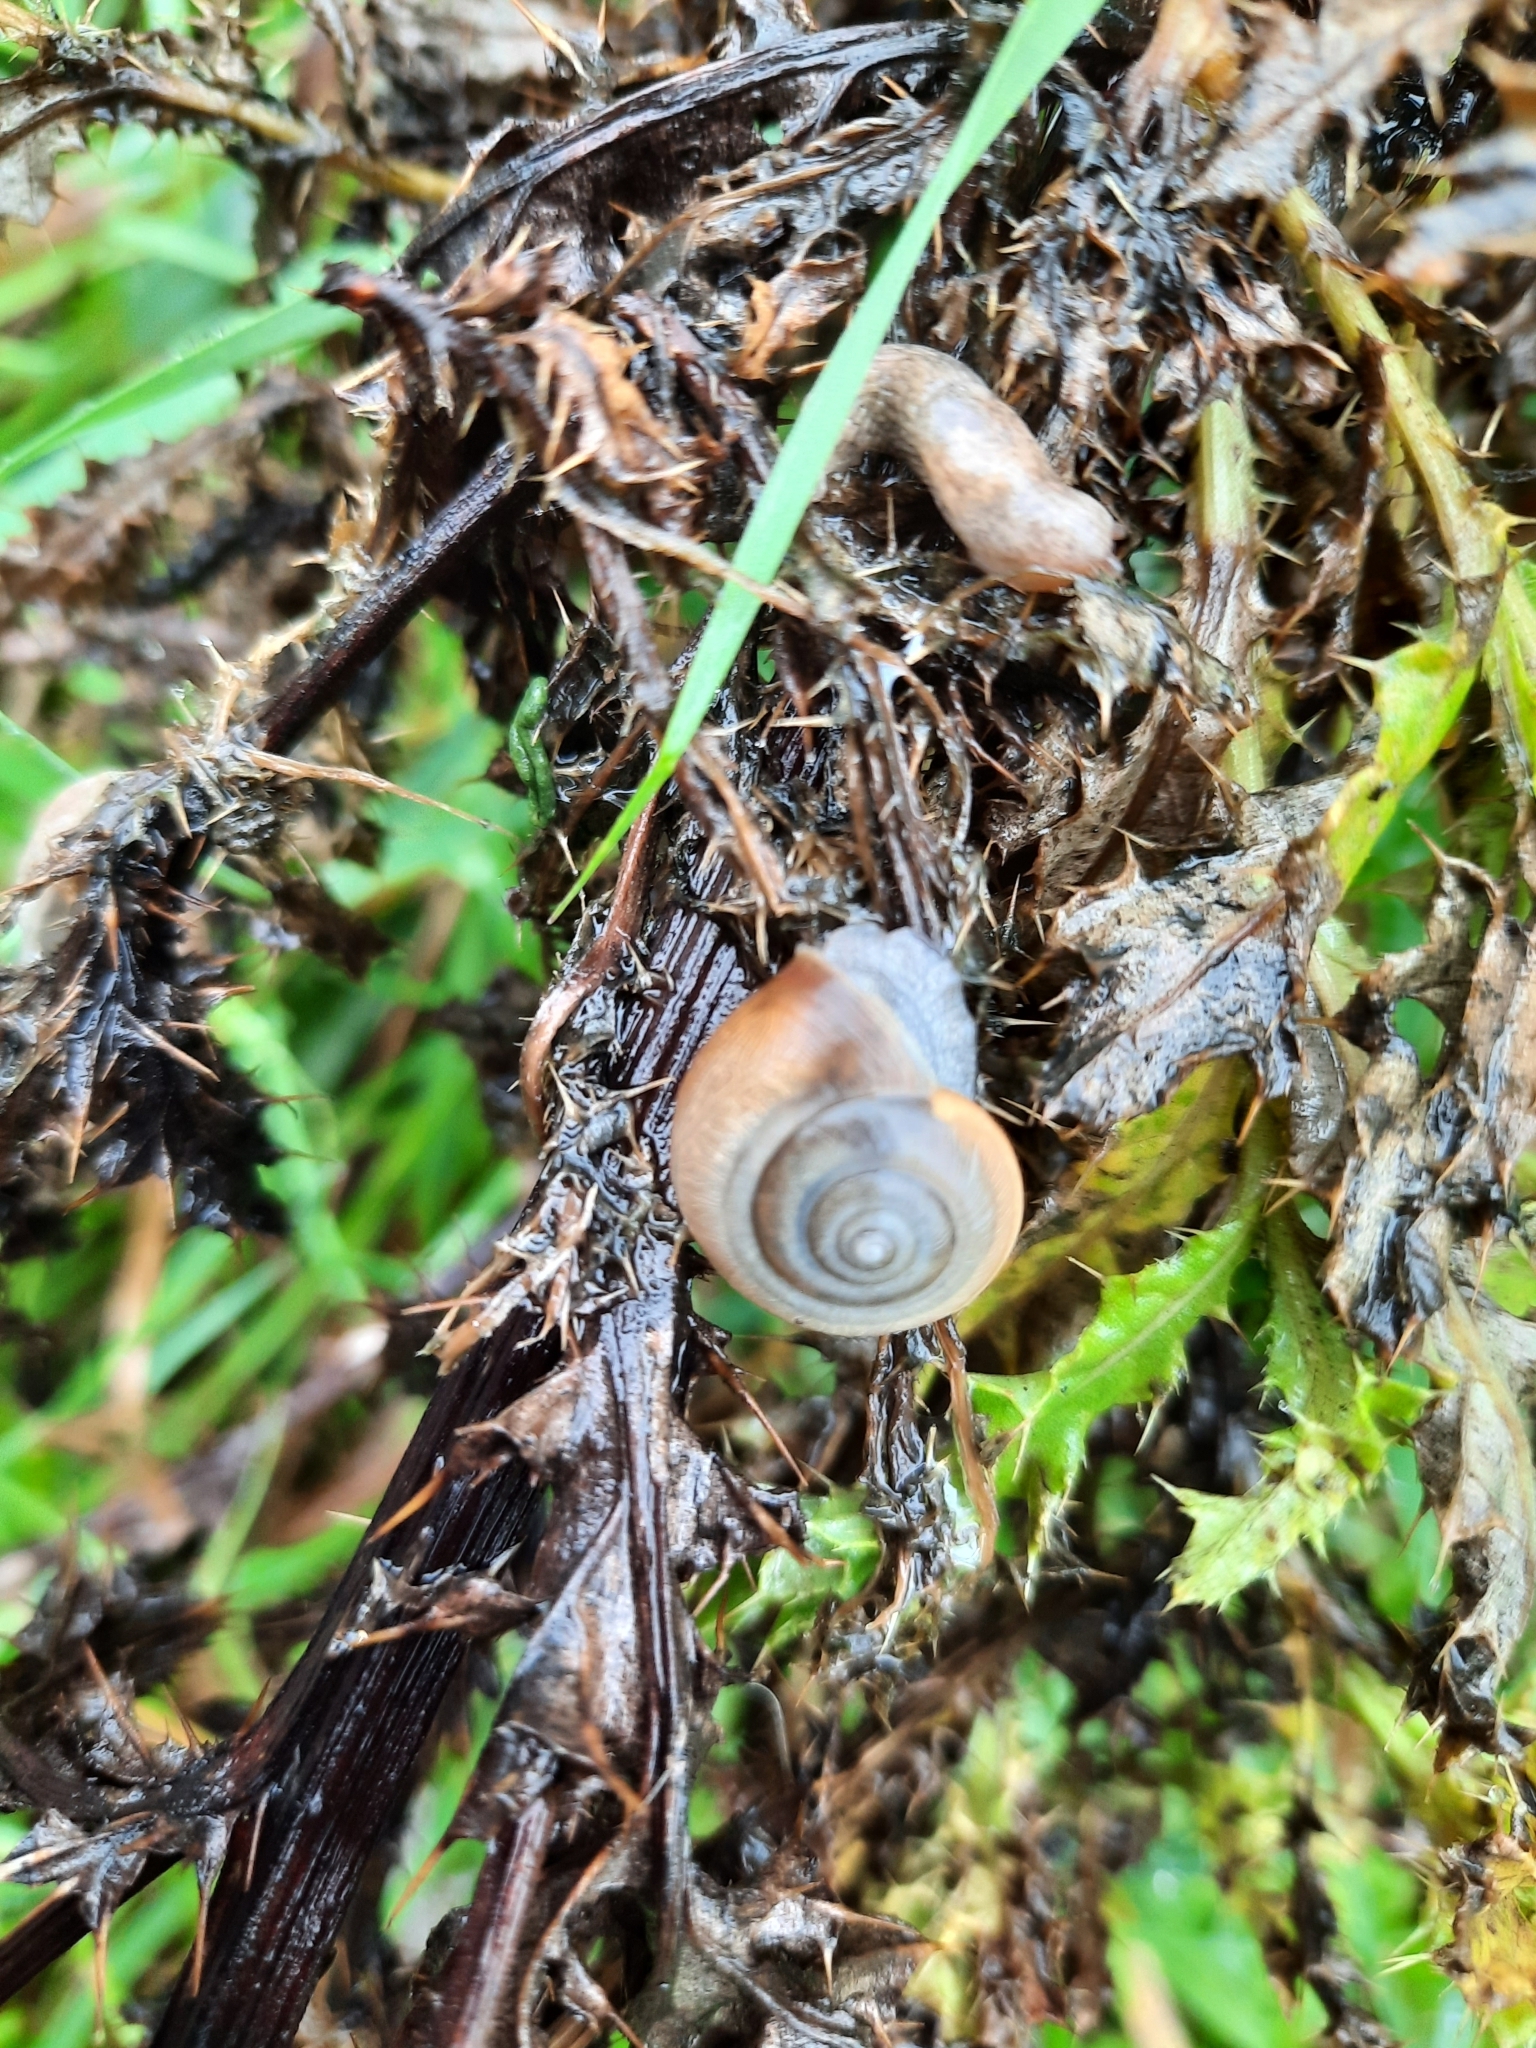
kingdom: Animalia
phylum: Mollusca
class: Gastropoda
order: Stylommatophora
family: Hygromiidae
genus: Monacha
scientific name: Monacha cantiana
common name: Kentish snail
